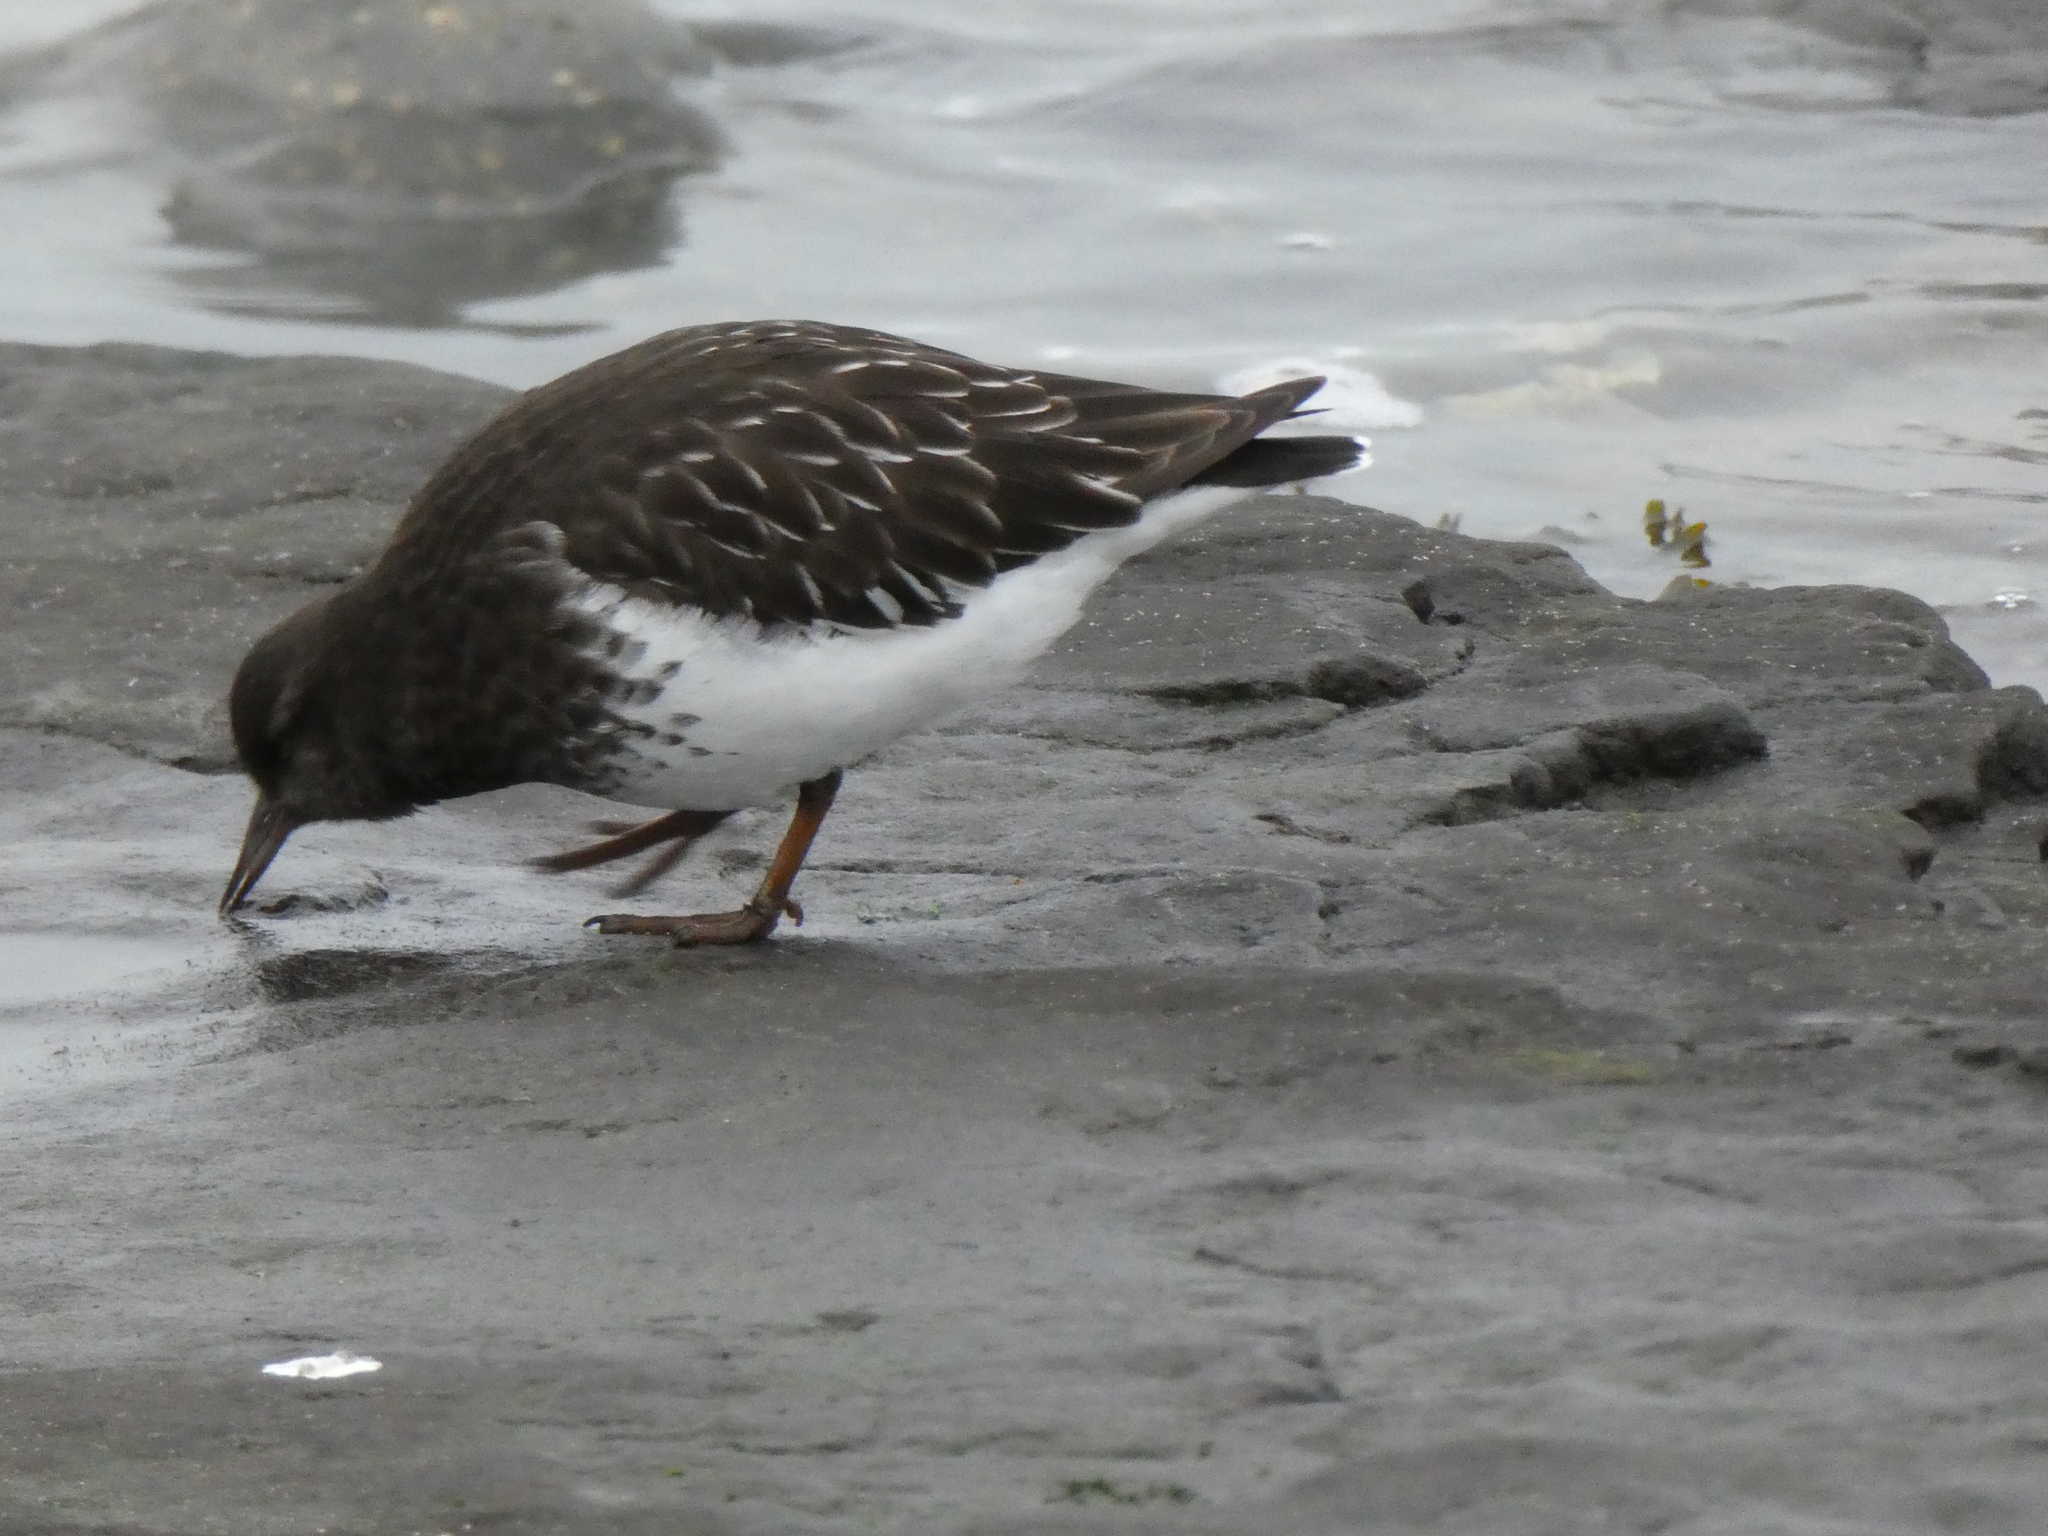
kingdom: Animalia
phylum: Chordata
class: Aves
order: Charadriiformes
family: Scolopacidae
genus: Arenaria
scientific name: Arenaria melanocephala
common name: Black turnstone
